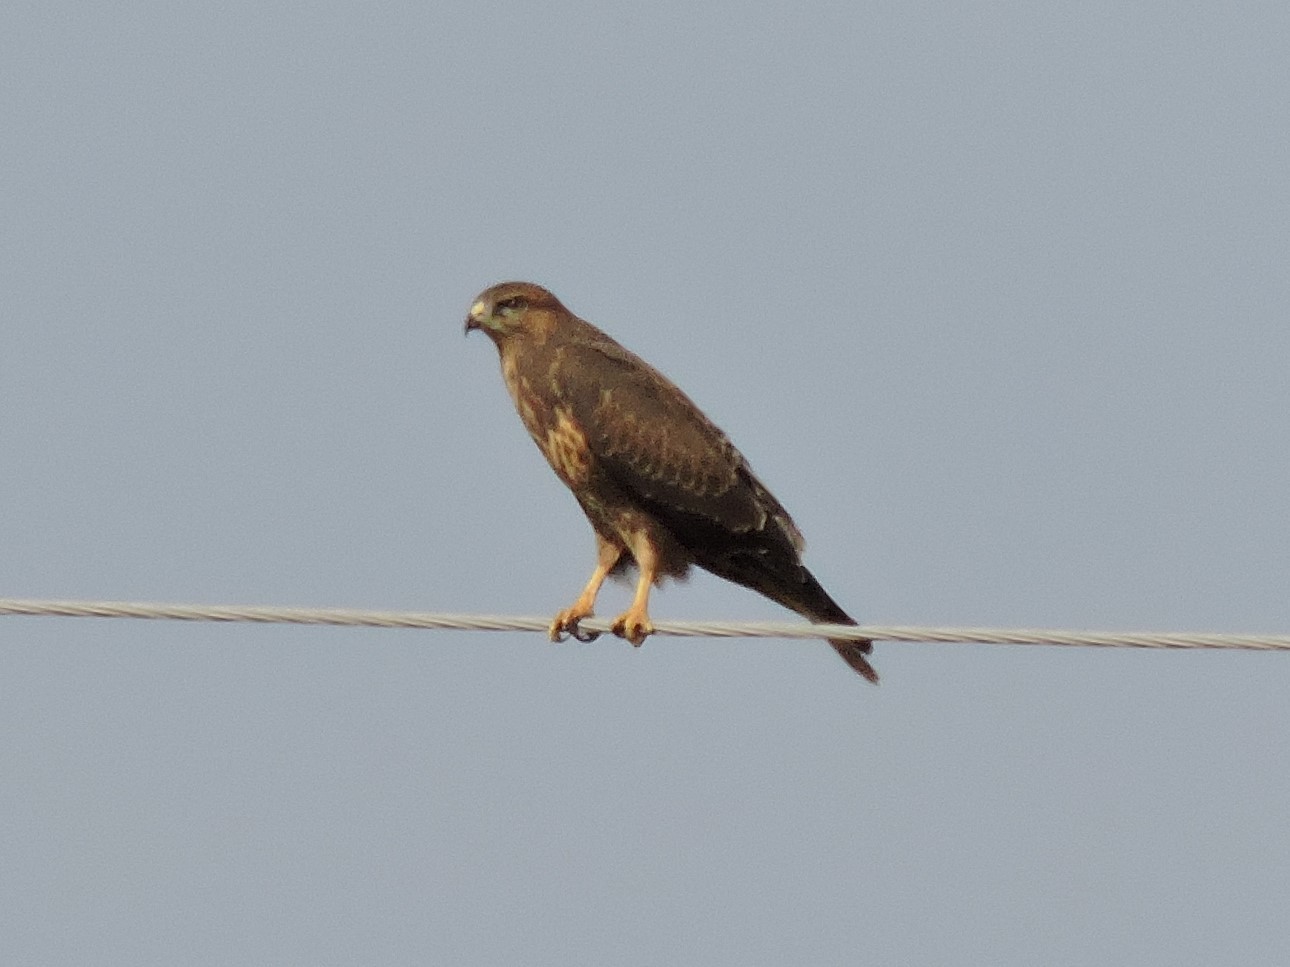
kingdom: Animalia
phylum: Chordata
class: Aves
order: Accipitriformes
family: Accipitridae
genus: Buteo
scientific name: Buteo buteo
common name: Common buzzard
